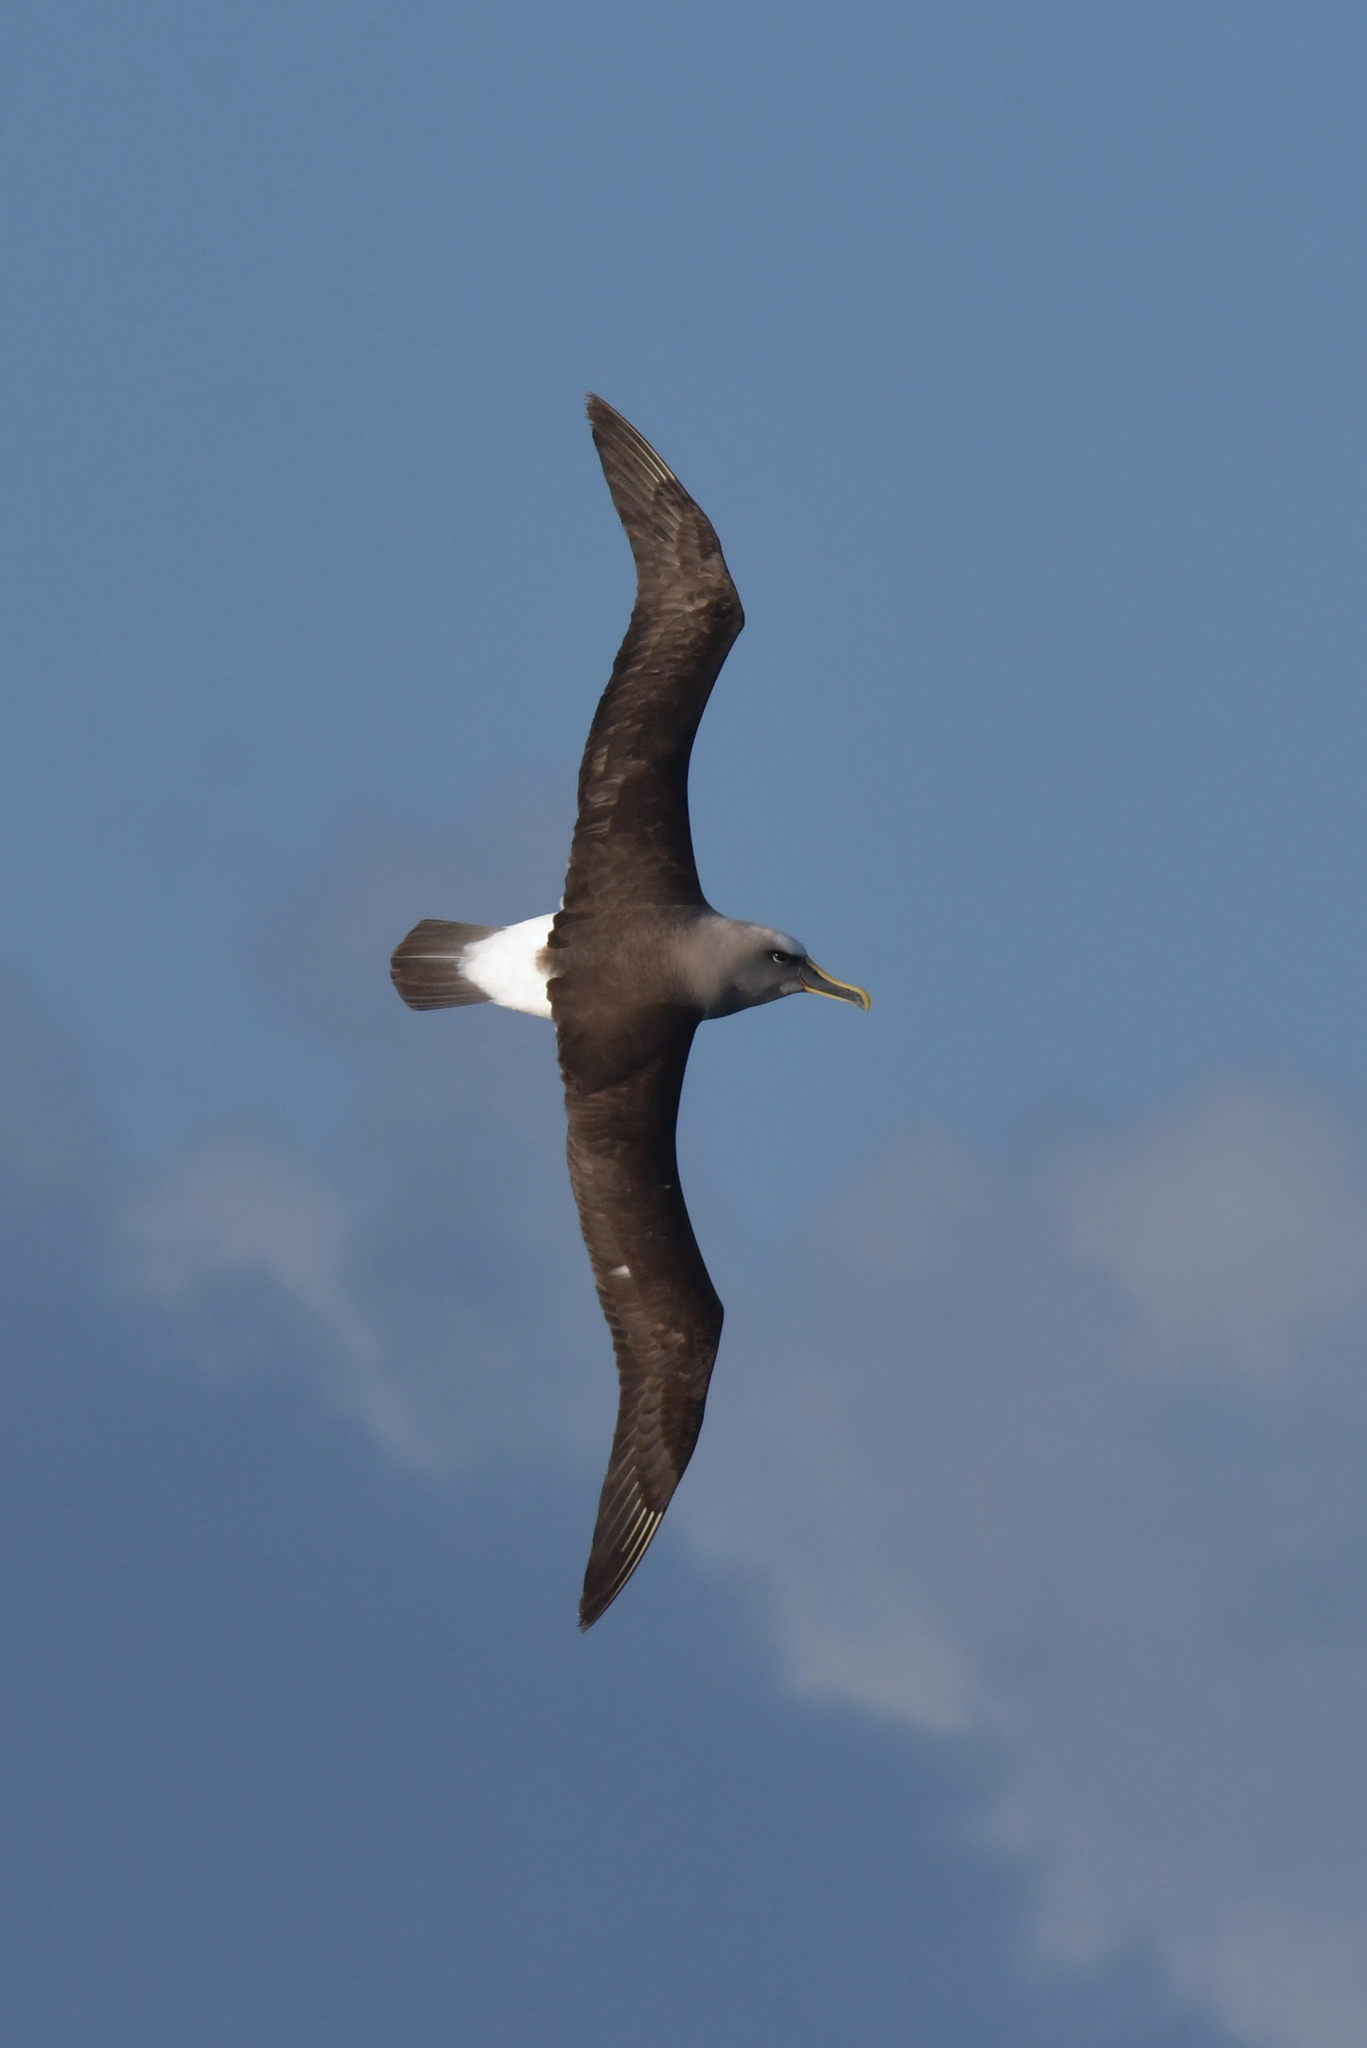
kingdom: Animalia
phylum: Chordata
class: Aves
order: Procellariiformes
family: Diomedeidae
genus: Thalassarche
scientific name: Thalassarche bulleri
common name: Buller's albatross
